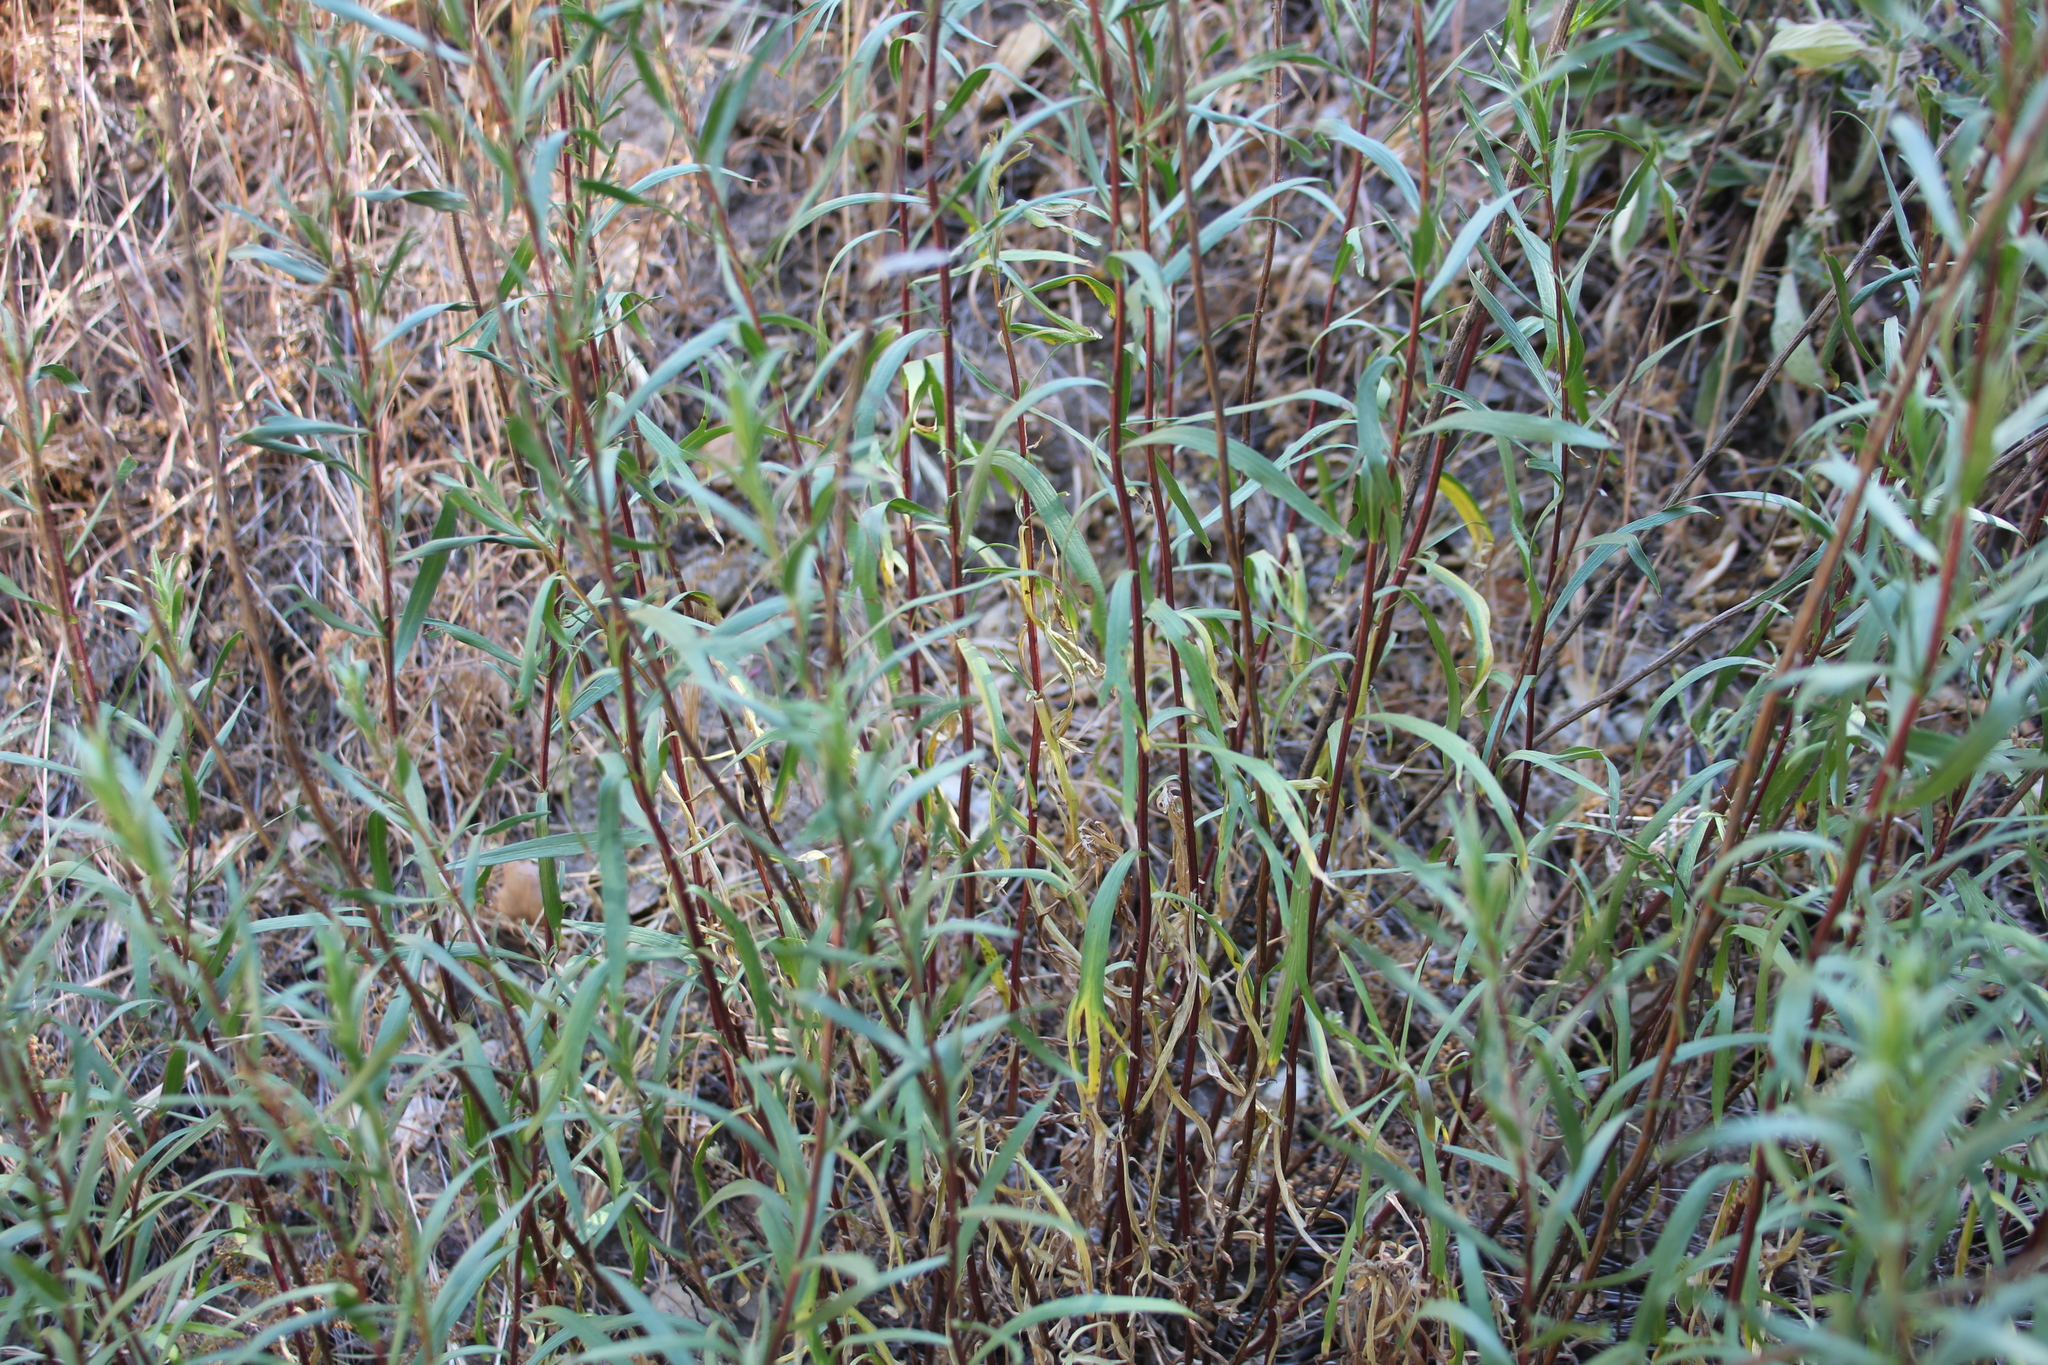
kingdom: Plantae
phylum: Tracheophyta
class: Magnoliopsida
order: Asterales
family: Asteraceae
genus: Artemisia
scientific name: Artemisia dracunculus
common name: Tarragon
